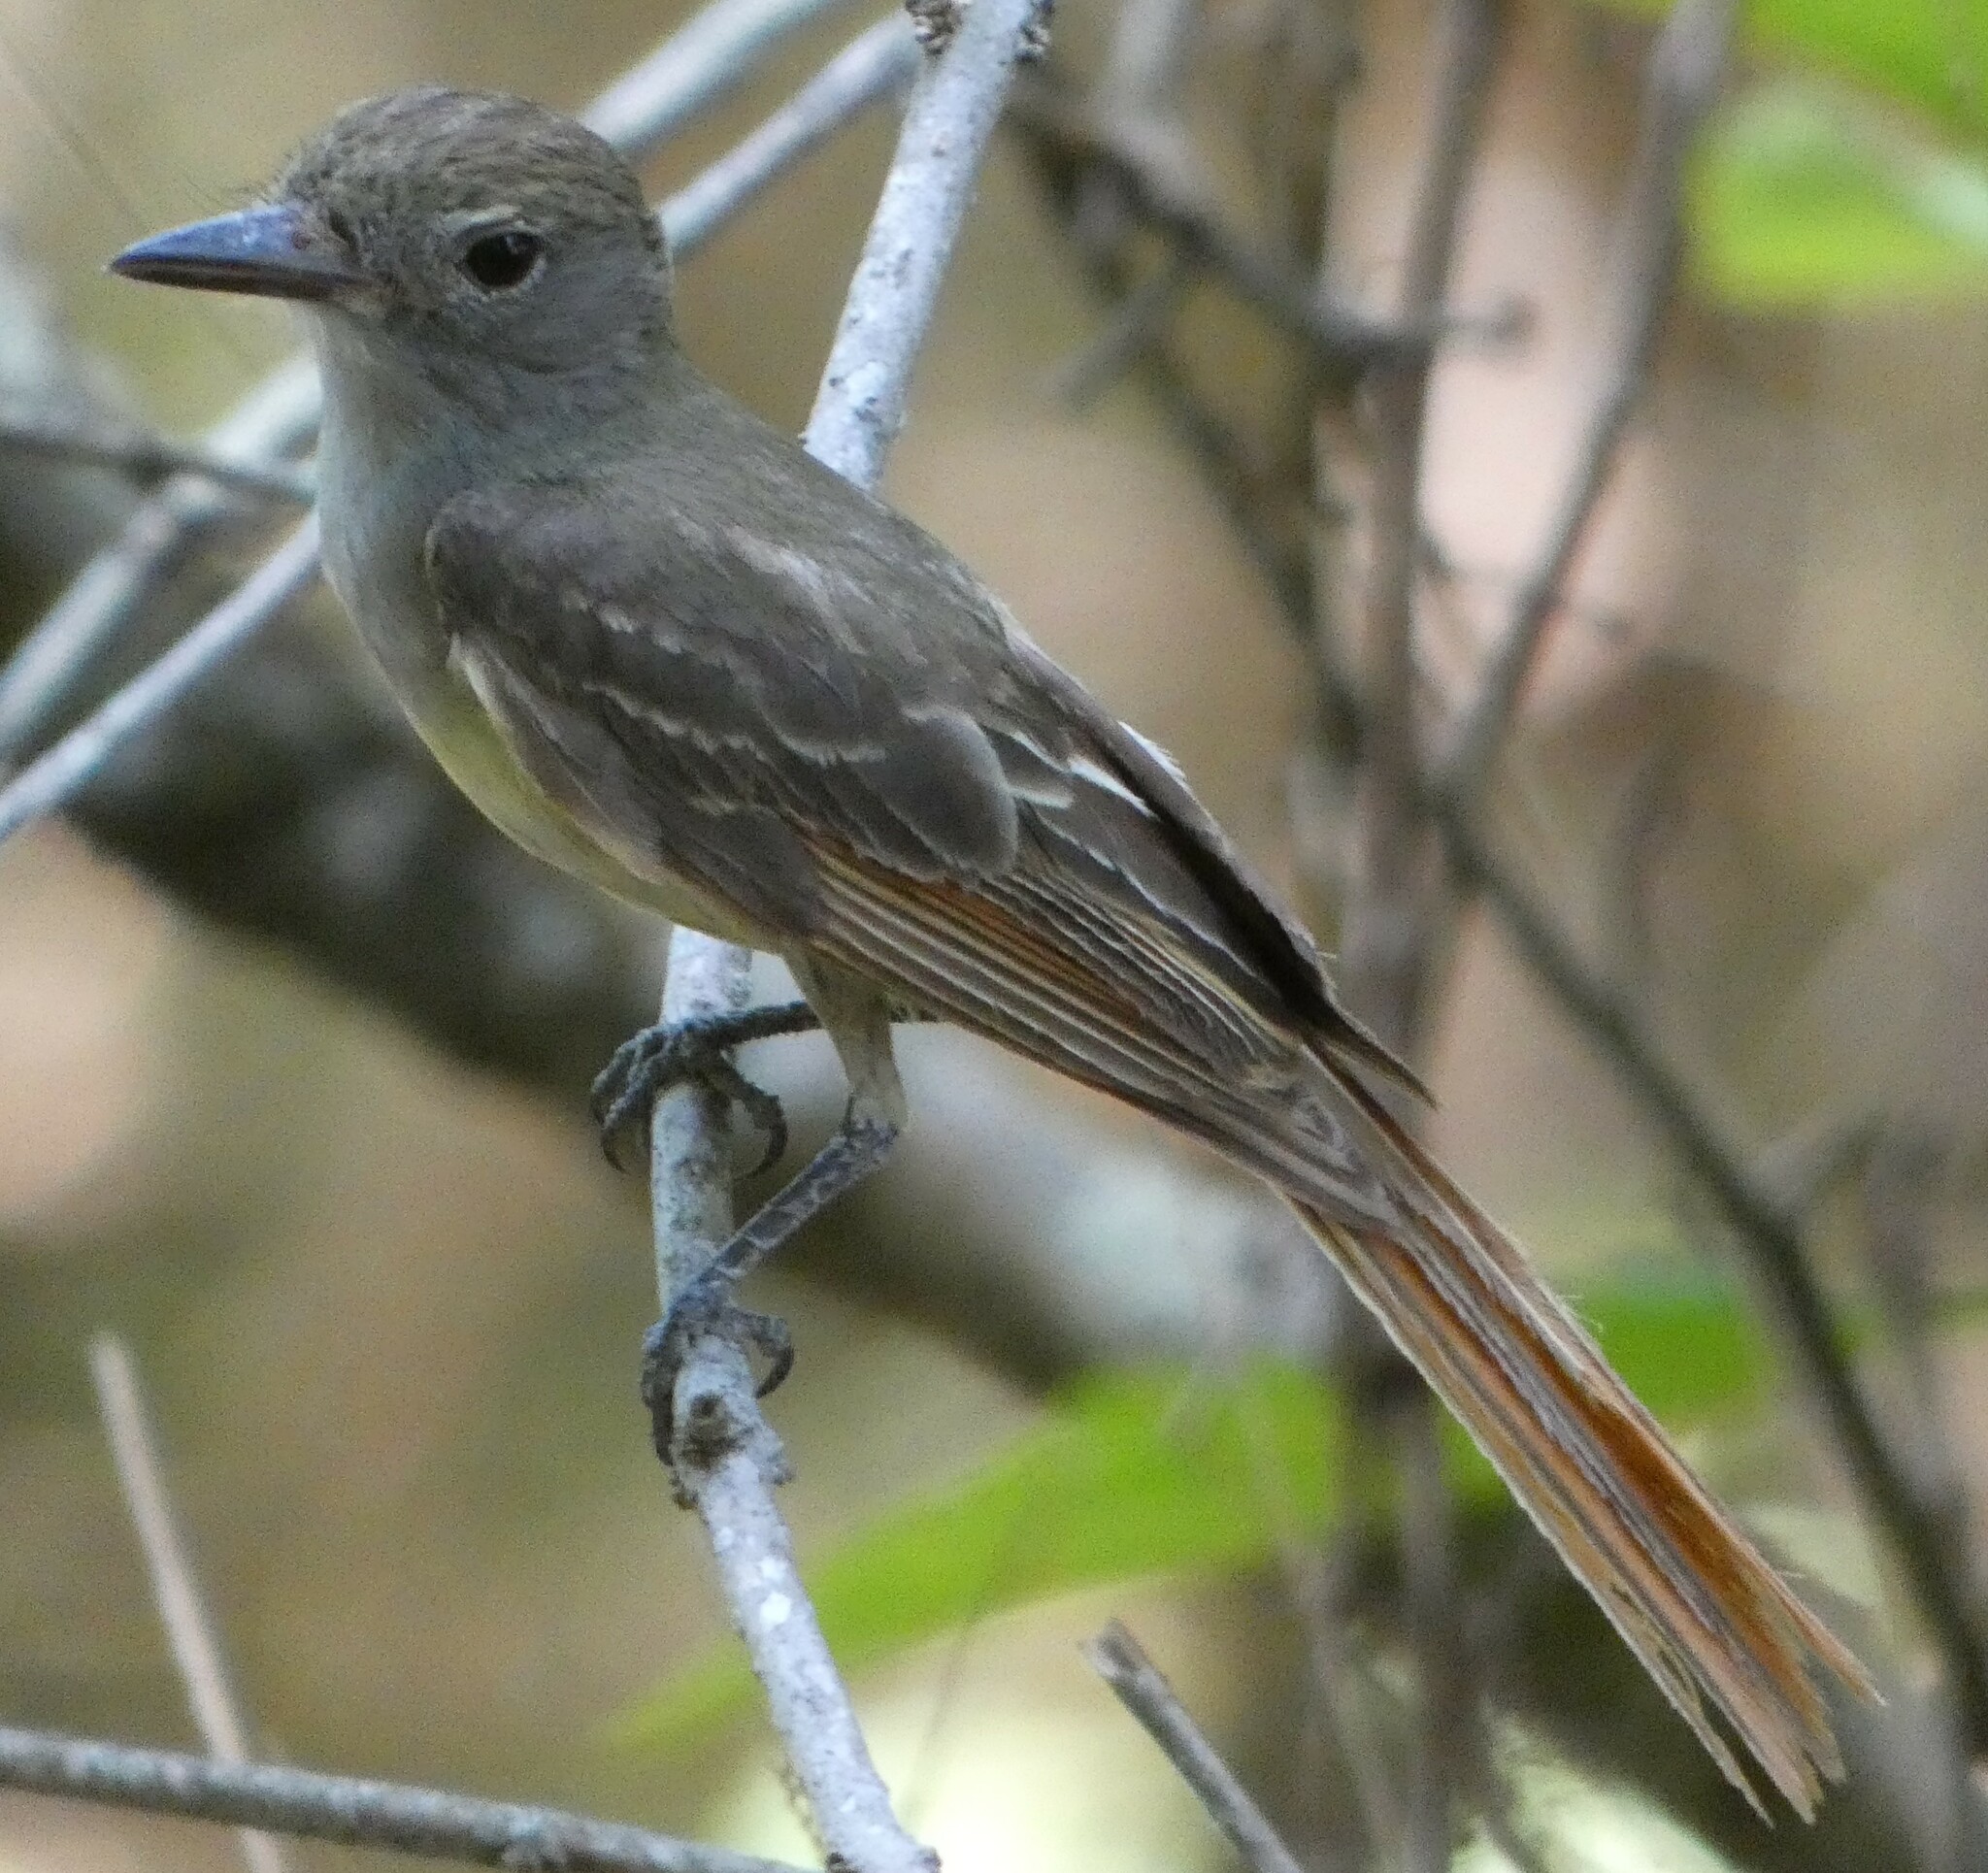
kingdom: Animalia
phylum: Chordata
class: Aves
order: Passeriformes
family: Tyrannidae
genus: Myiarchus
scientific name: Myiarchus crinitus
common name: Great crested flycatcher
